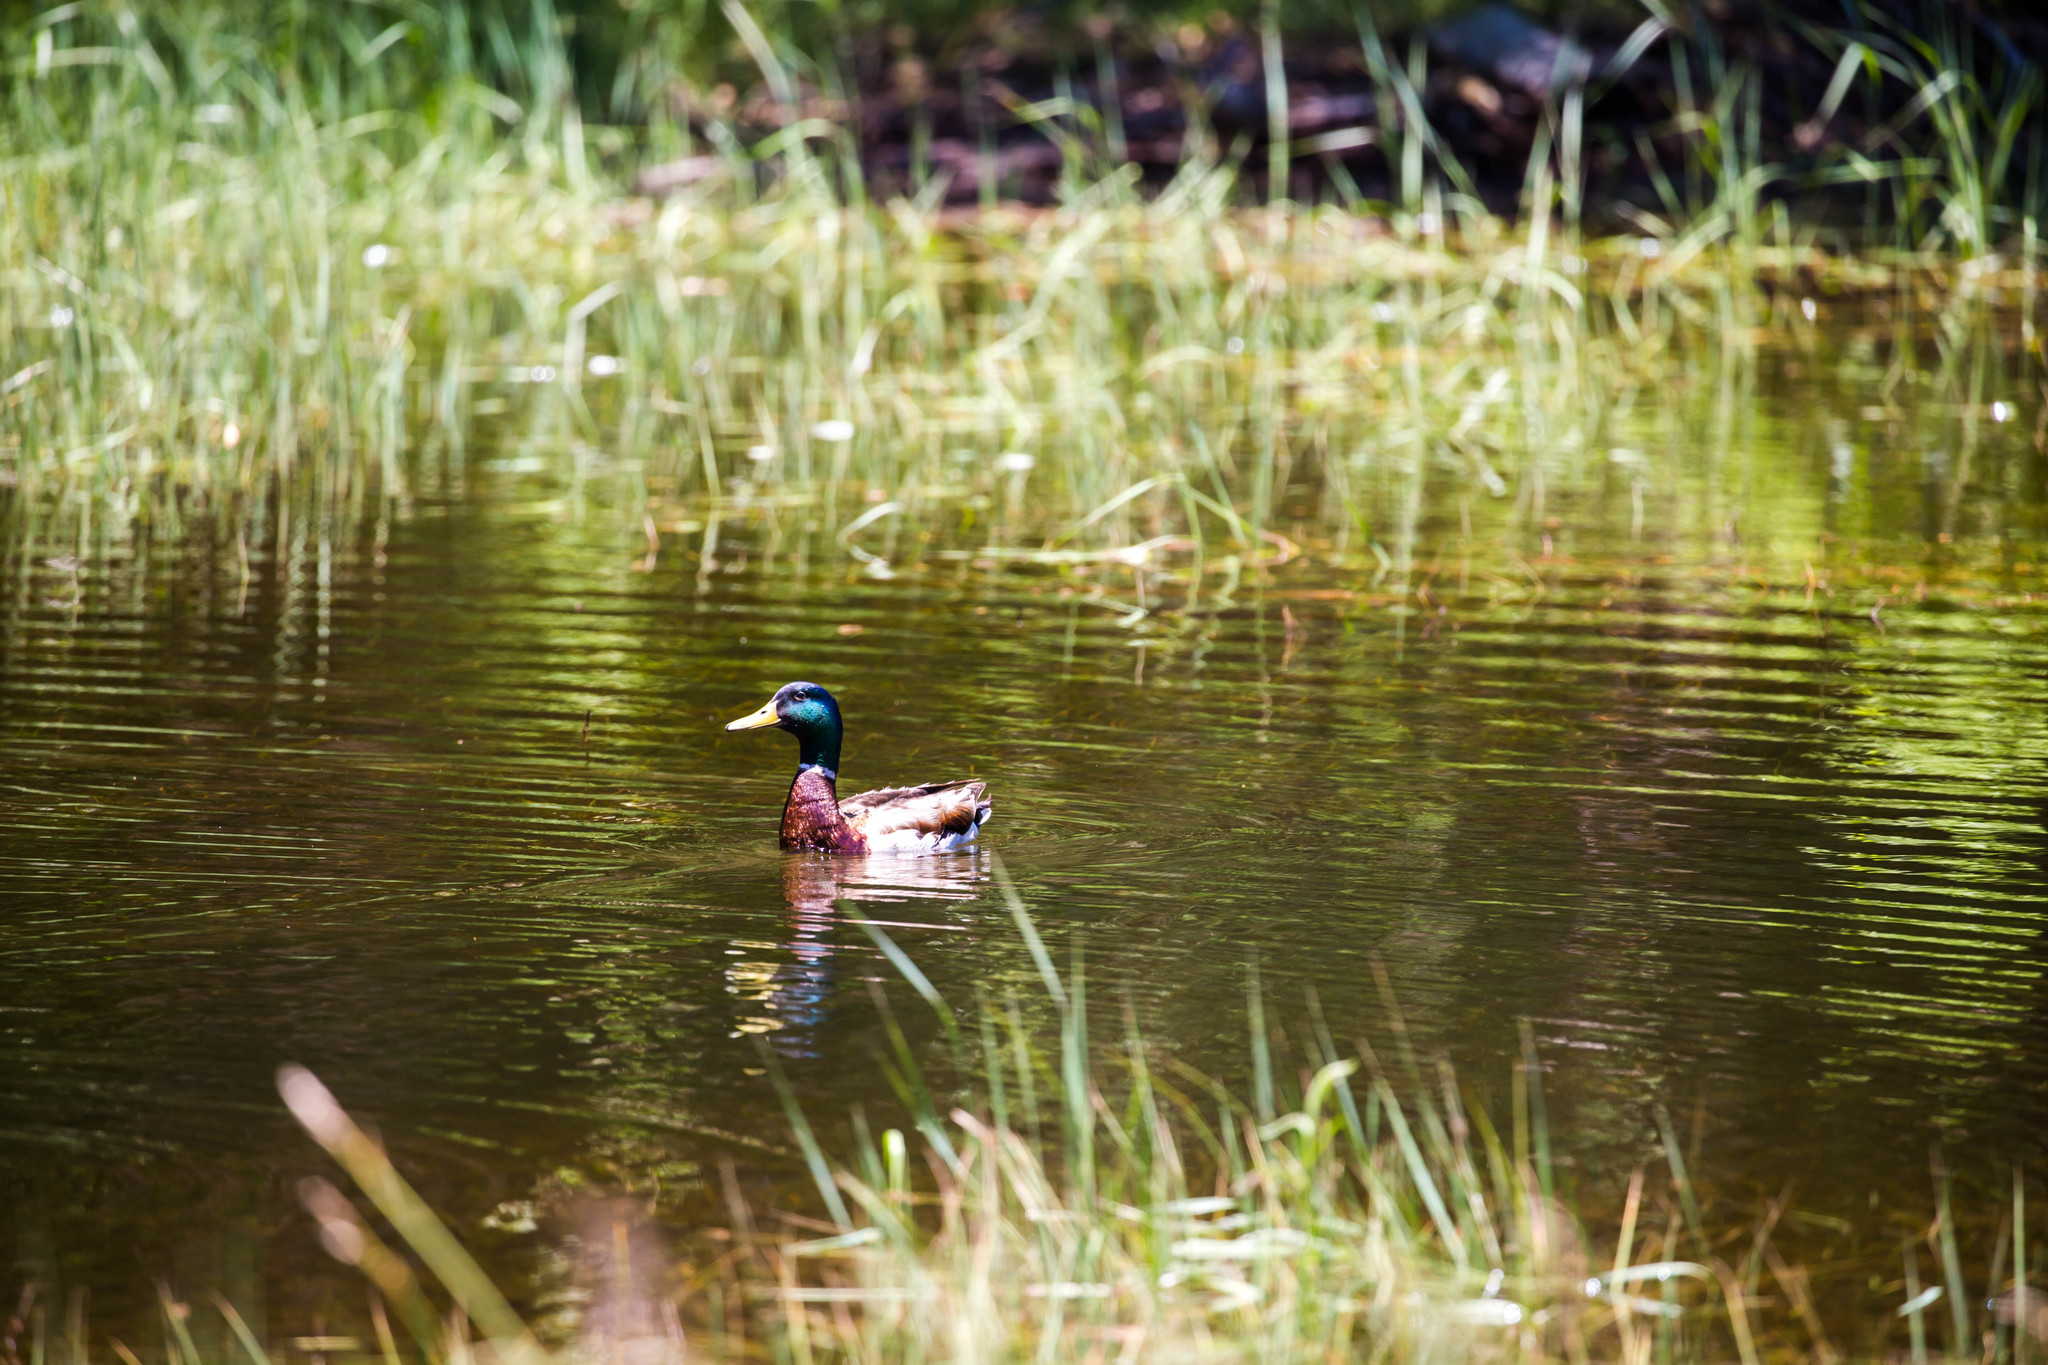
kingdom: Animalia
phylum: Chordata
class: Aves
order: Anseriformes
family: Anatidae
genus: Anas
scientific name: Anas platyrhynchos
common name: Mallard
